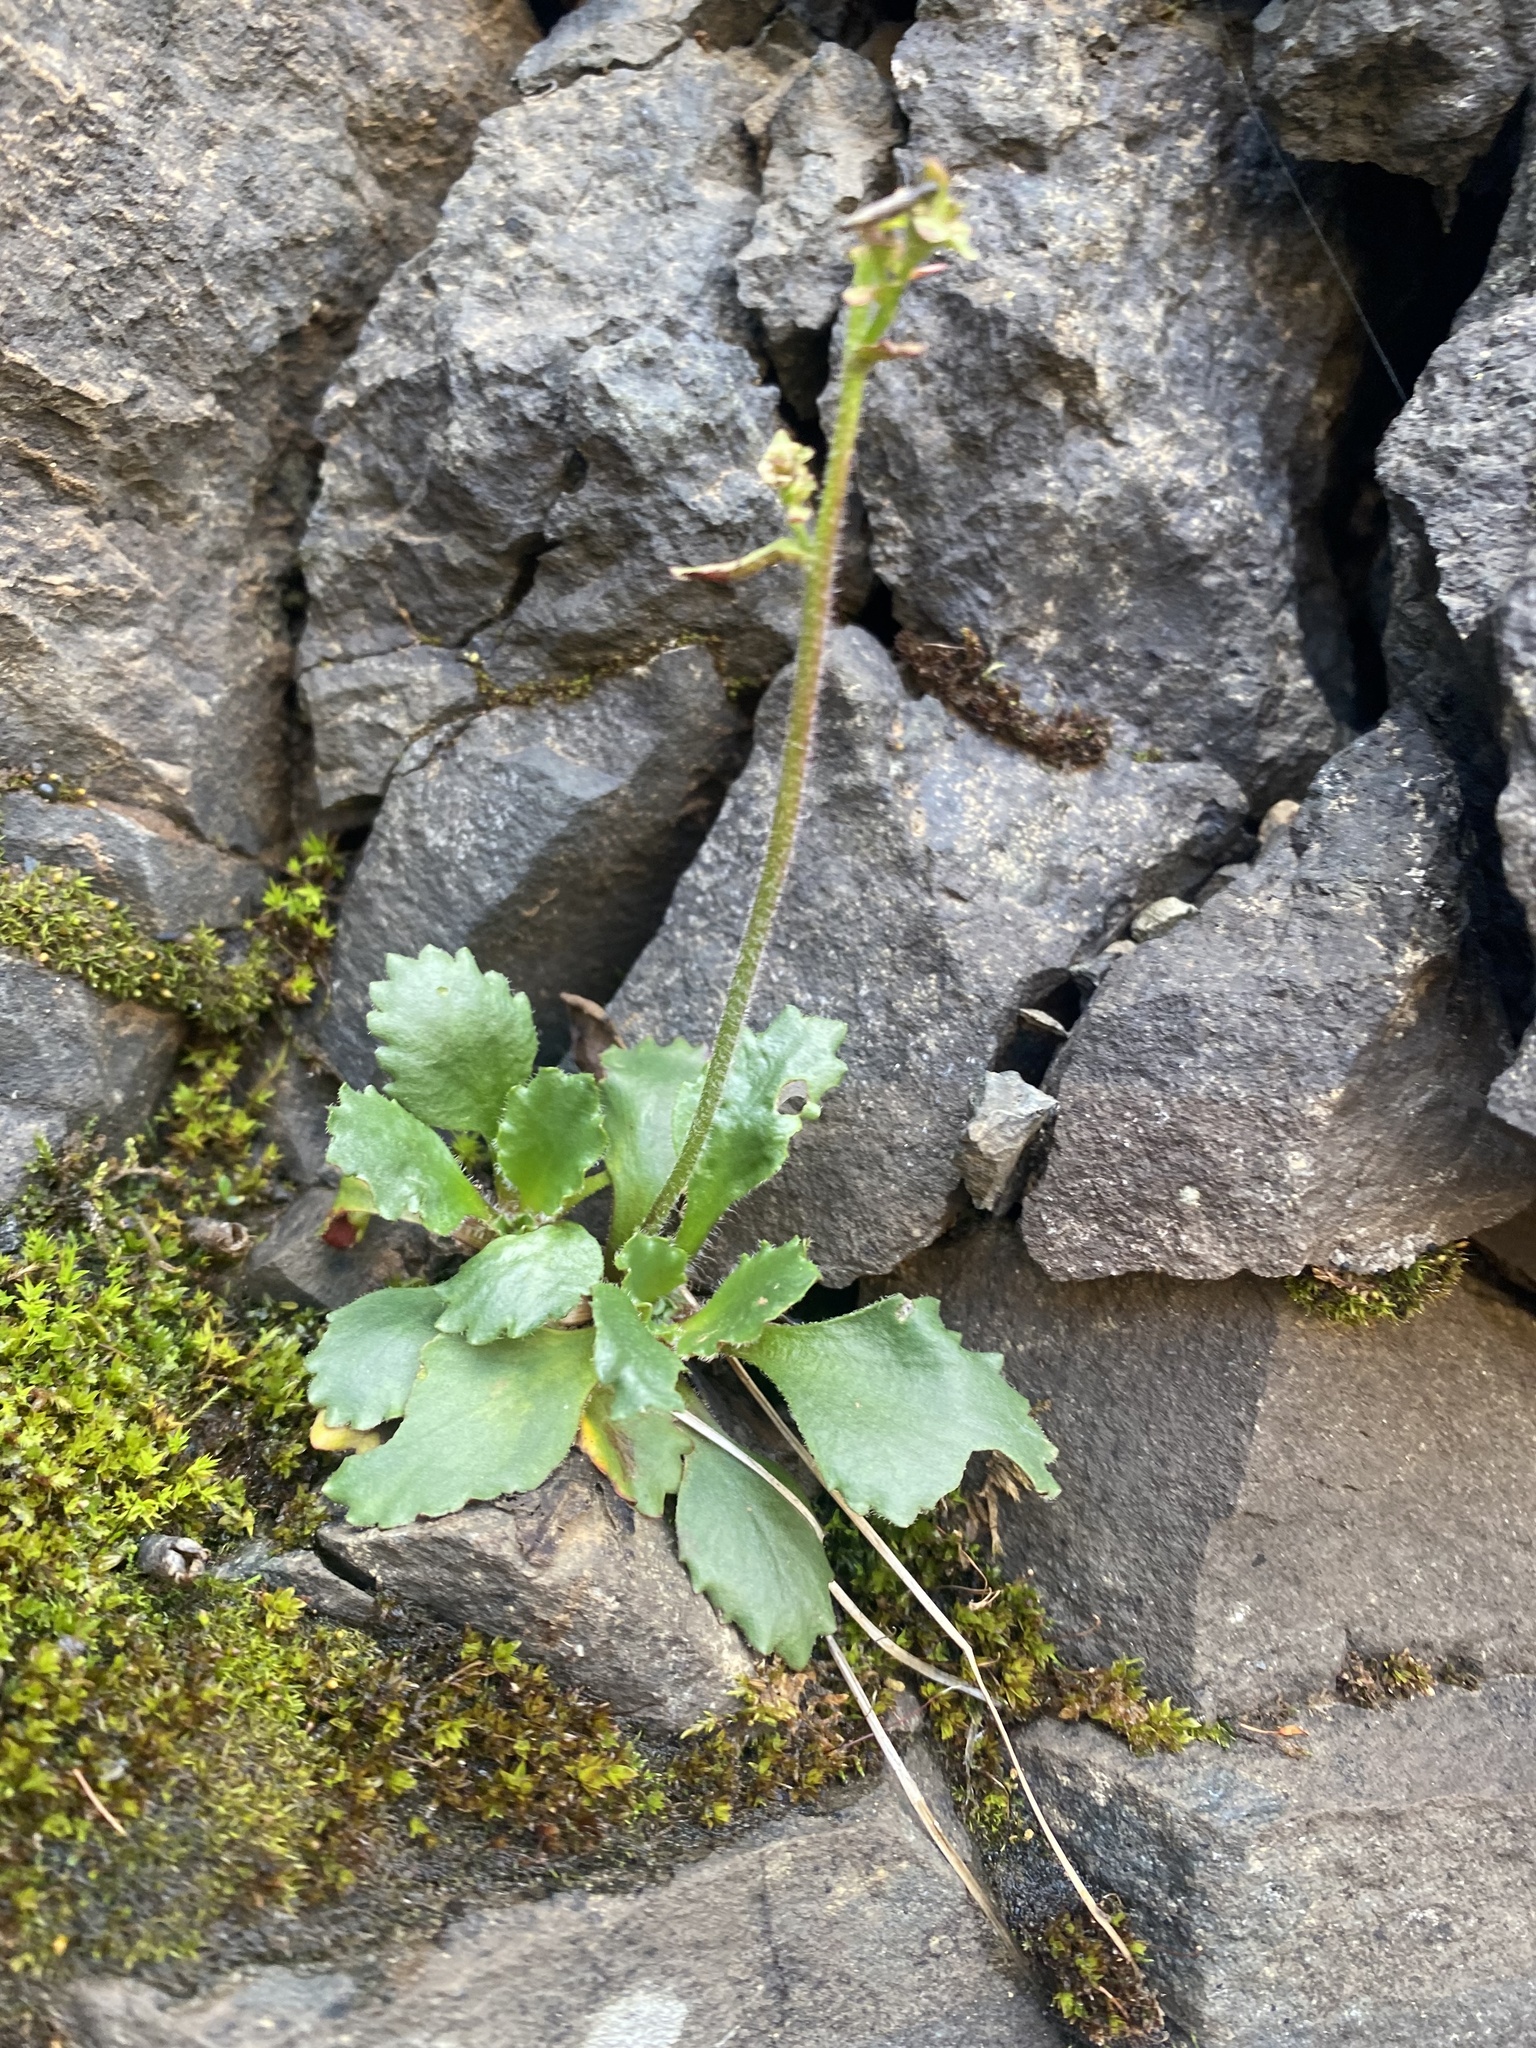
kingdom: Plantae
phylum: Tracheophyta
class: Magnoliopsida
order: Saxifragales
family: Saxifragaceae
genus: Micranthes
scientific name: Micranthes nivalis
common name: Alpine saxifrage
